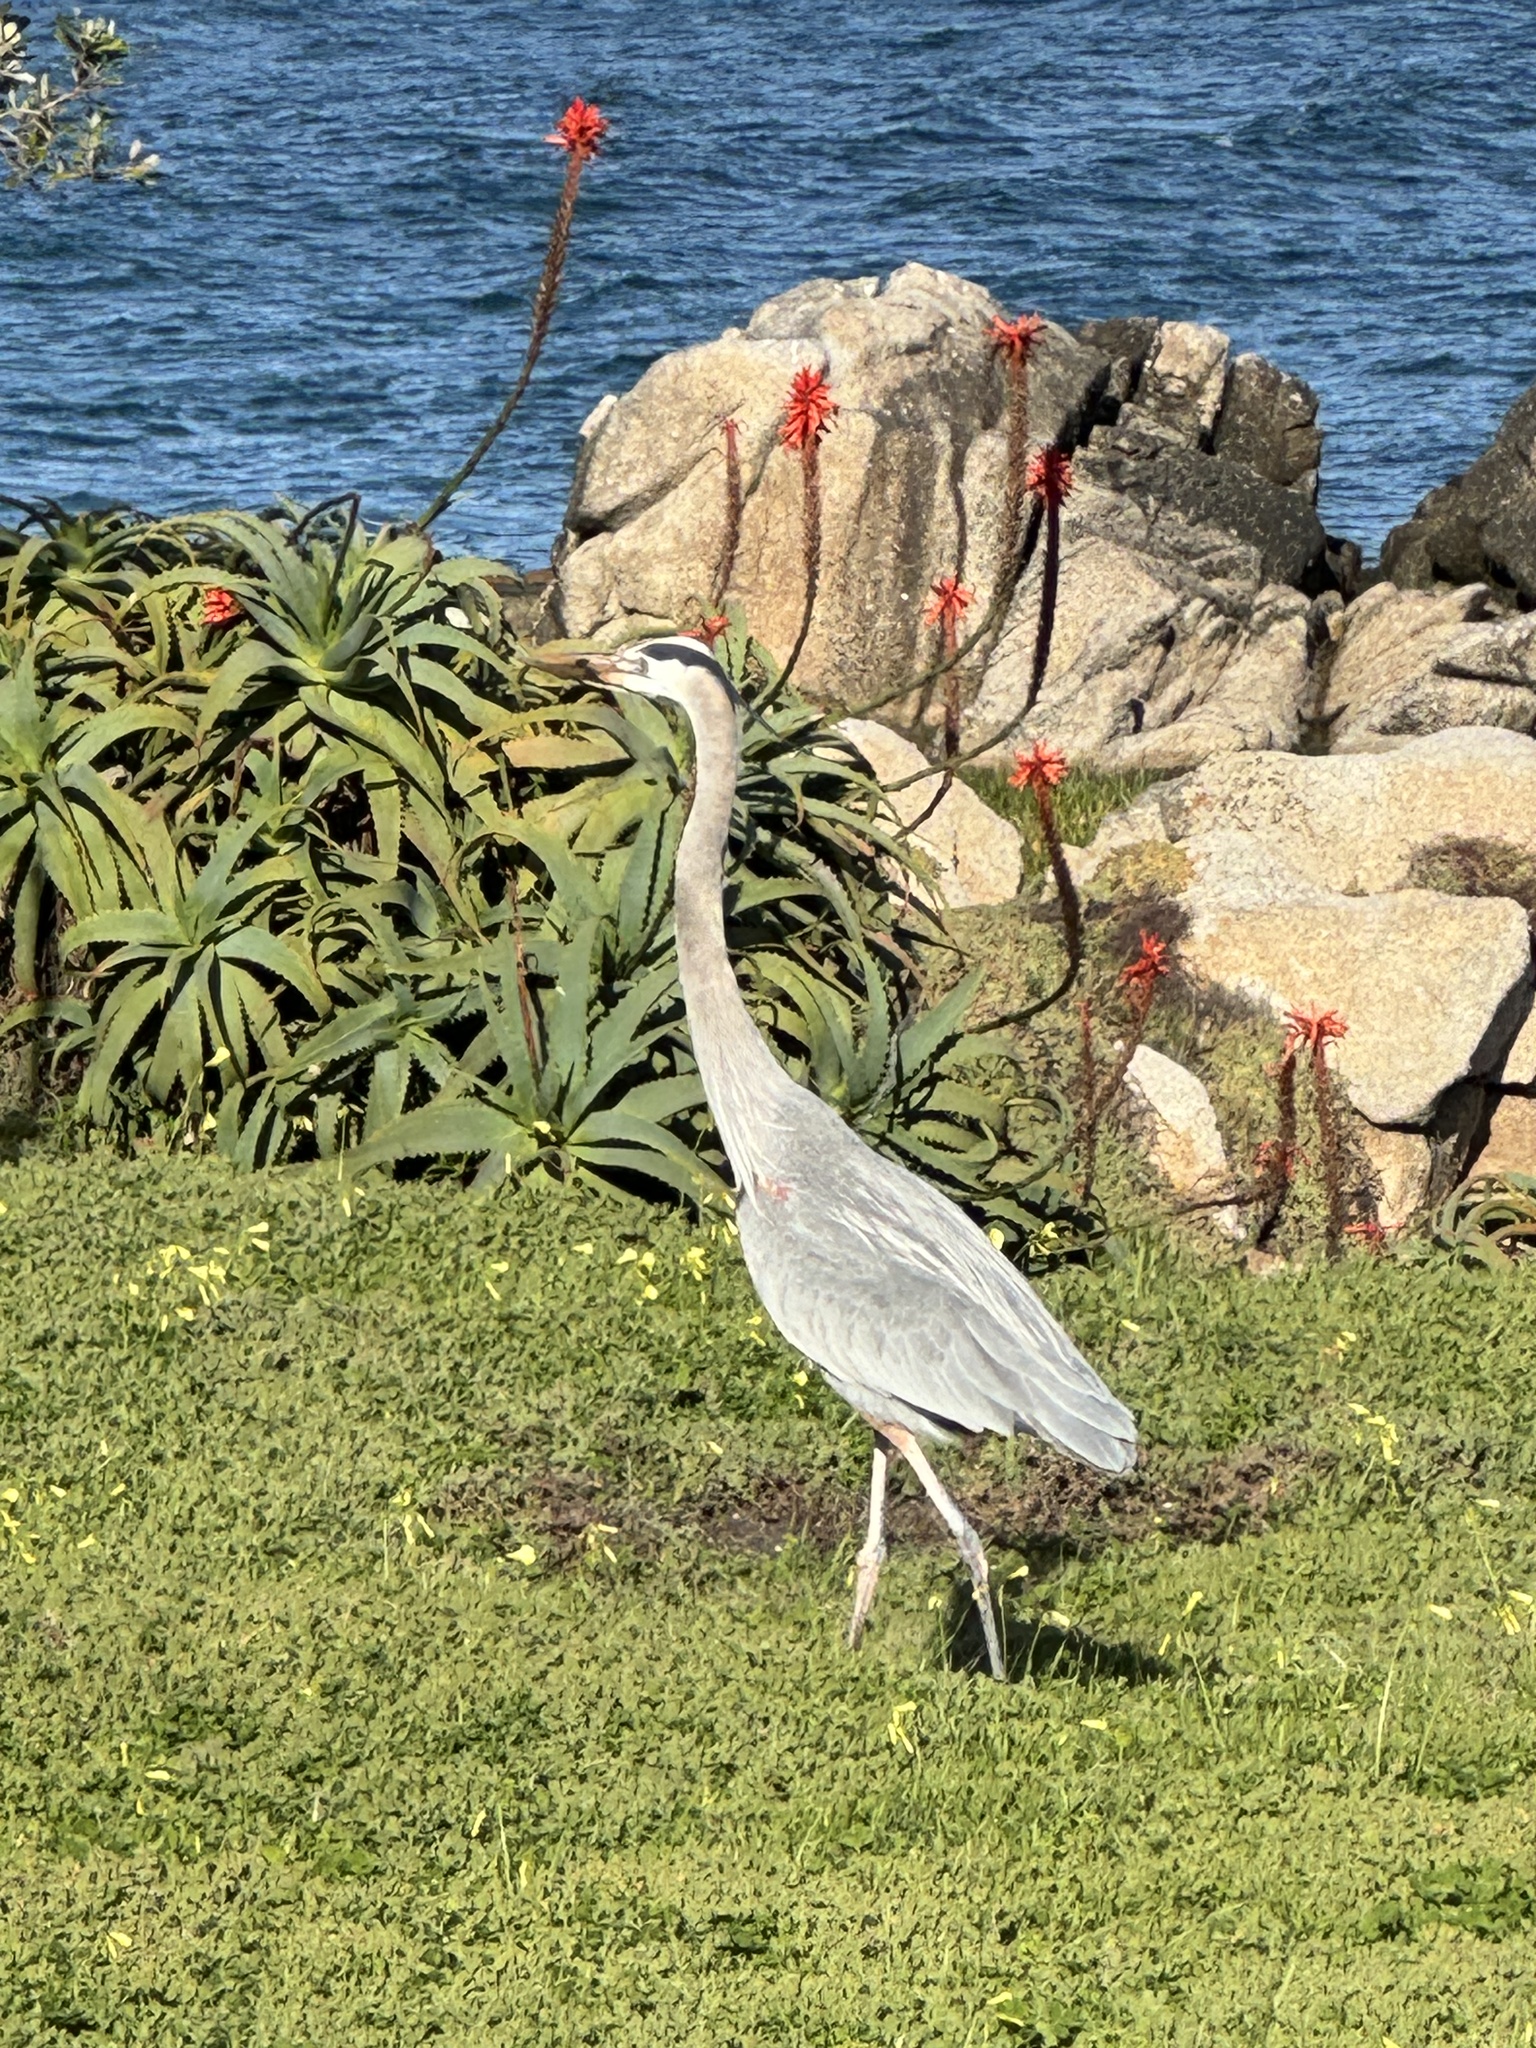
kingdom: Animalia
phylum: Chordata
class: Aves
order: Pelecaniformes
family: Ardeidae
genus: Ardea
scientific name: Ardea herodias
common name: Great blue heron
